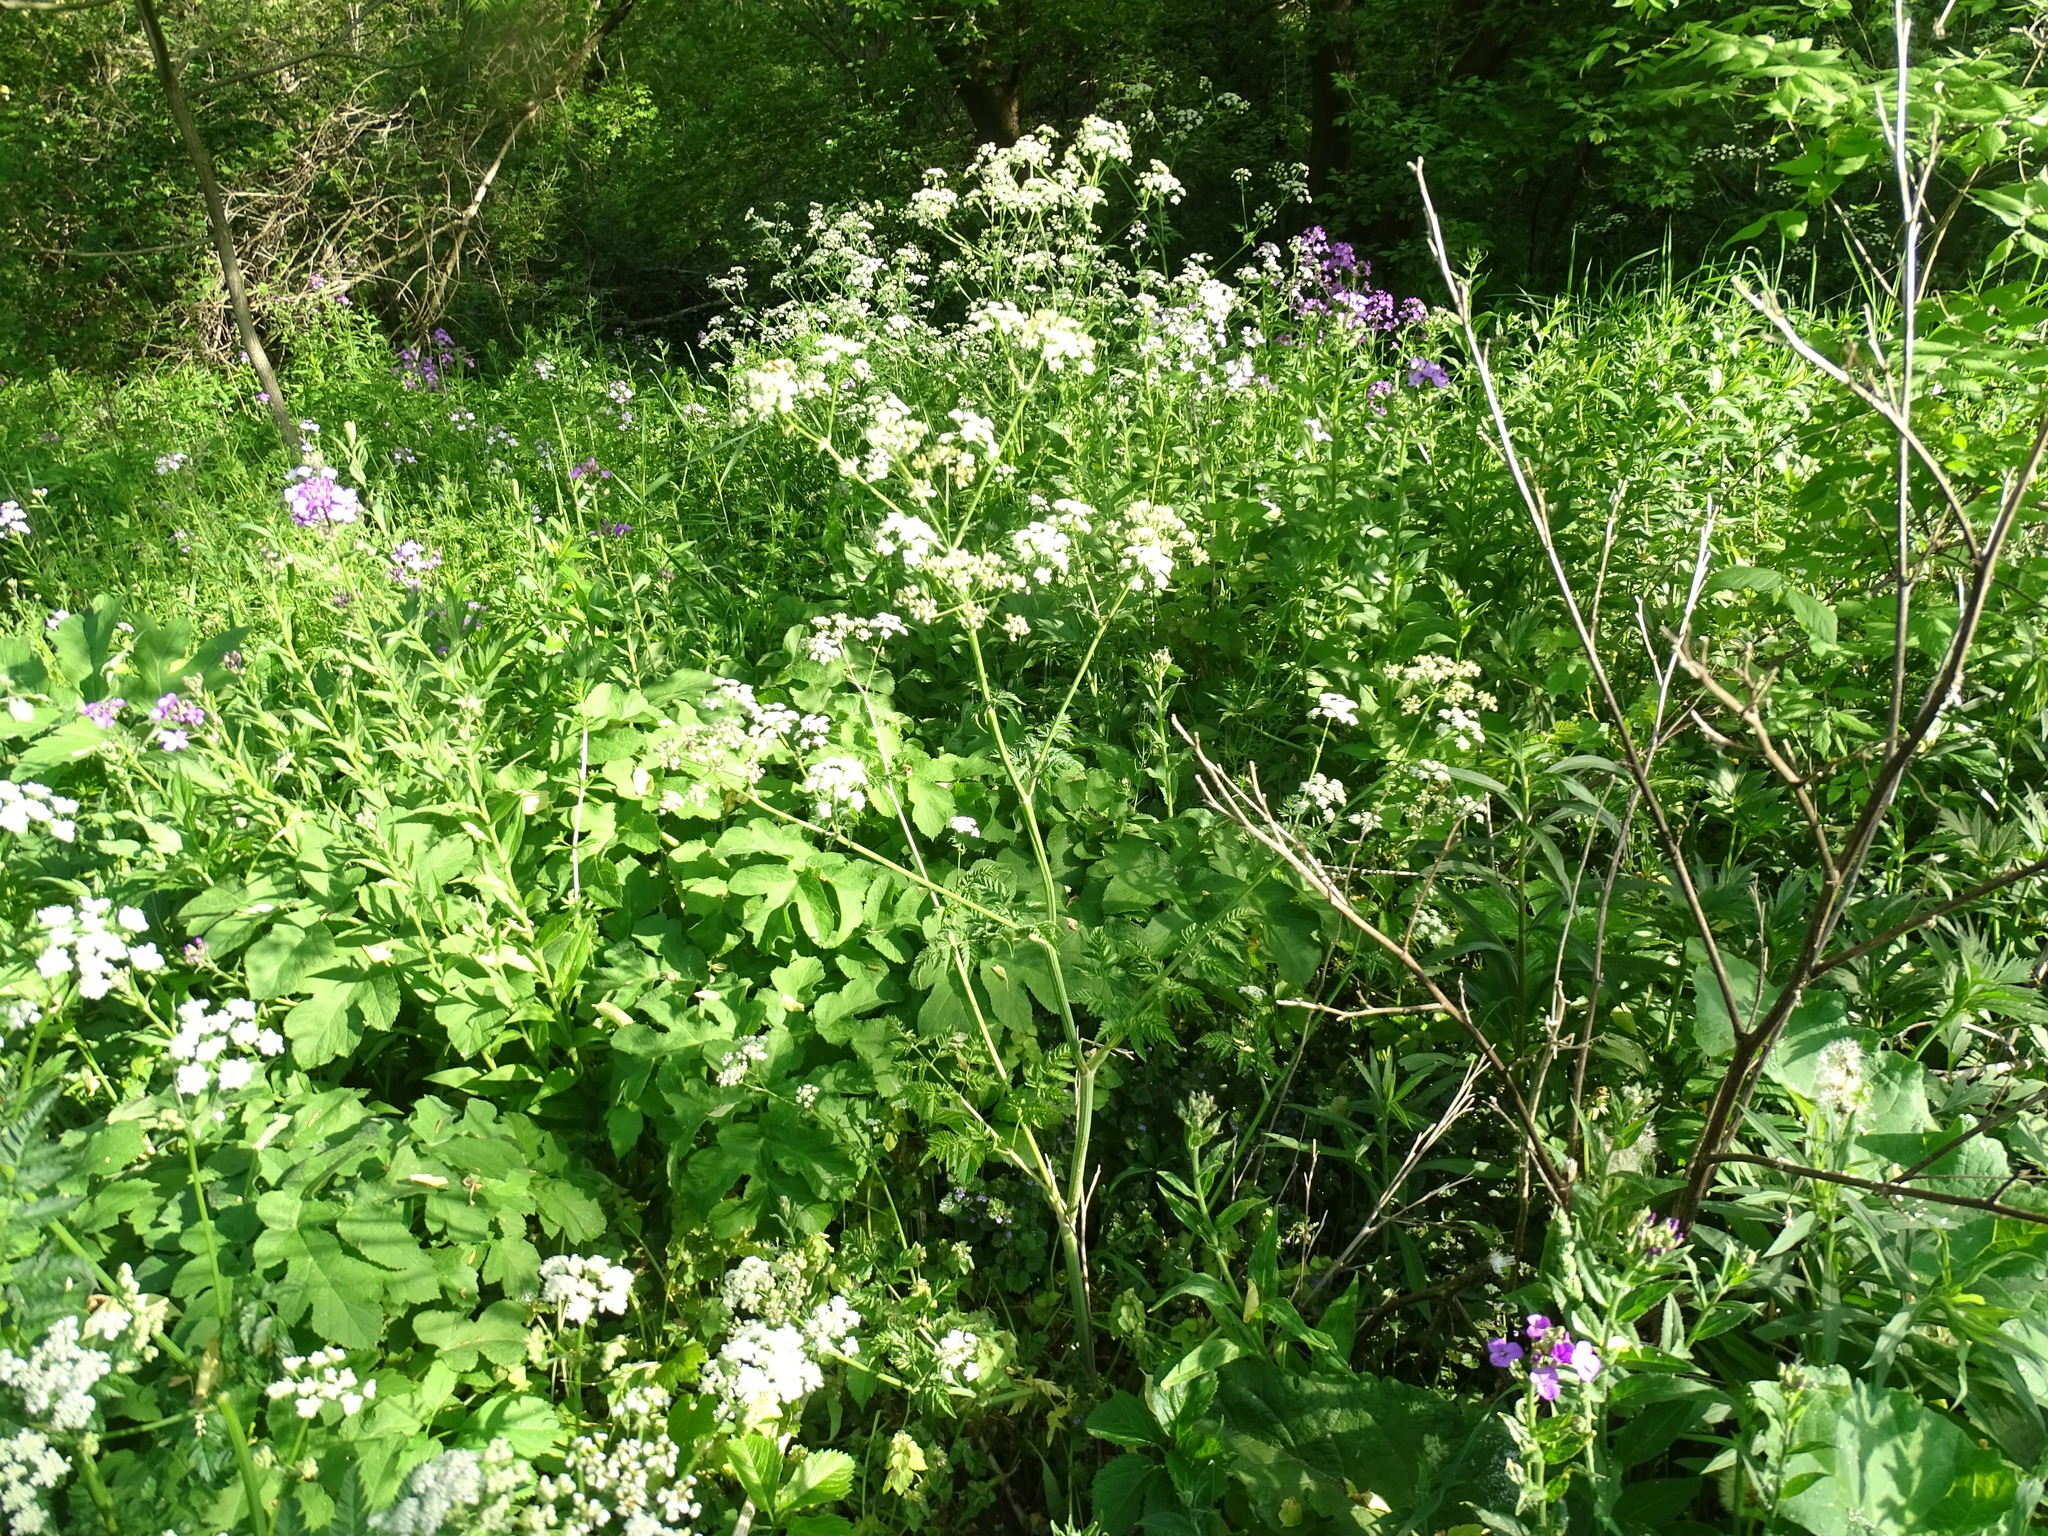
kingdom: Plantae
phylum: Tracheophyta
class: Magnoliopsida
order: Apiales
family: Apiaceae
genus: Anthriscus
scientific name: Anthriscus sylvestris
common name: Cow parsley
